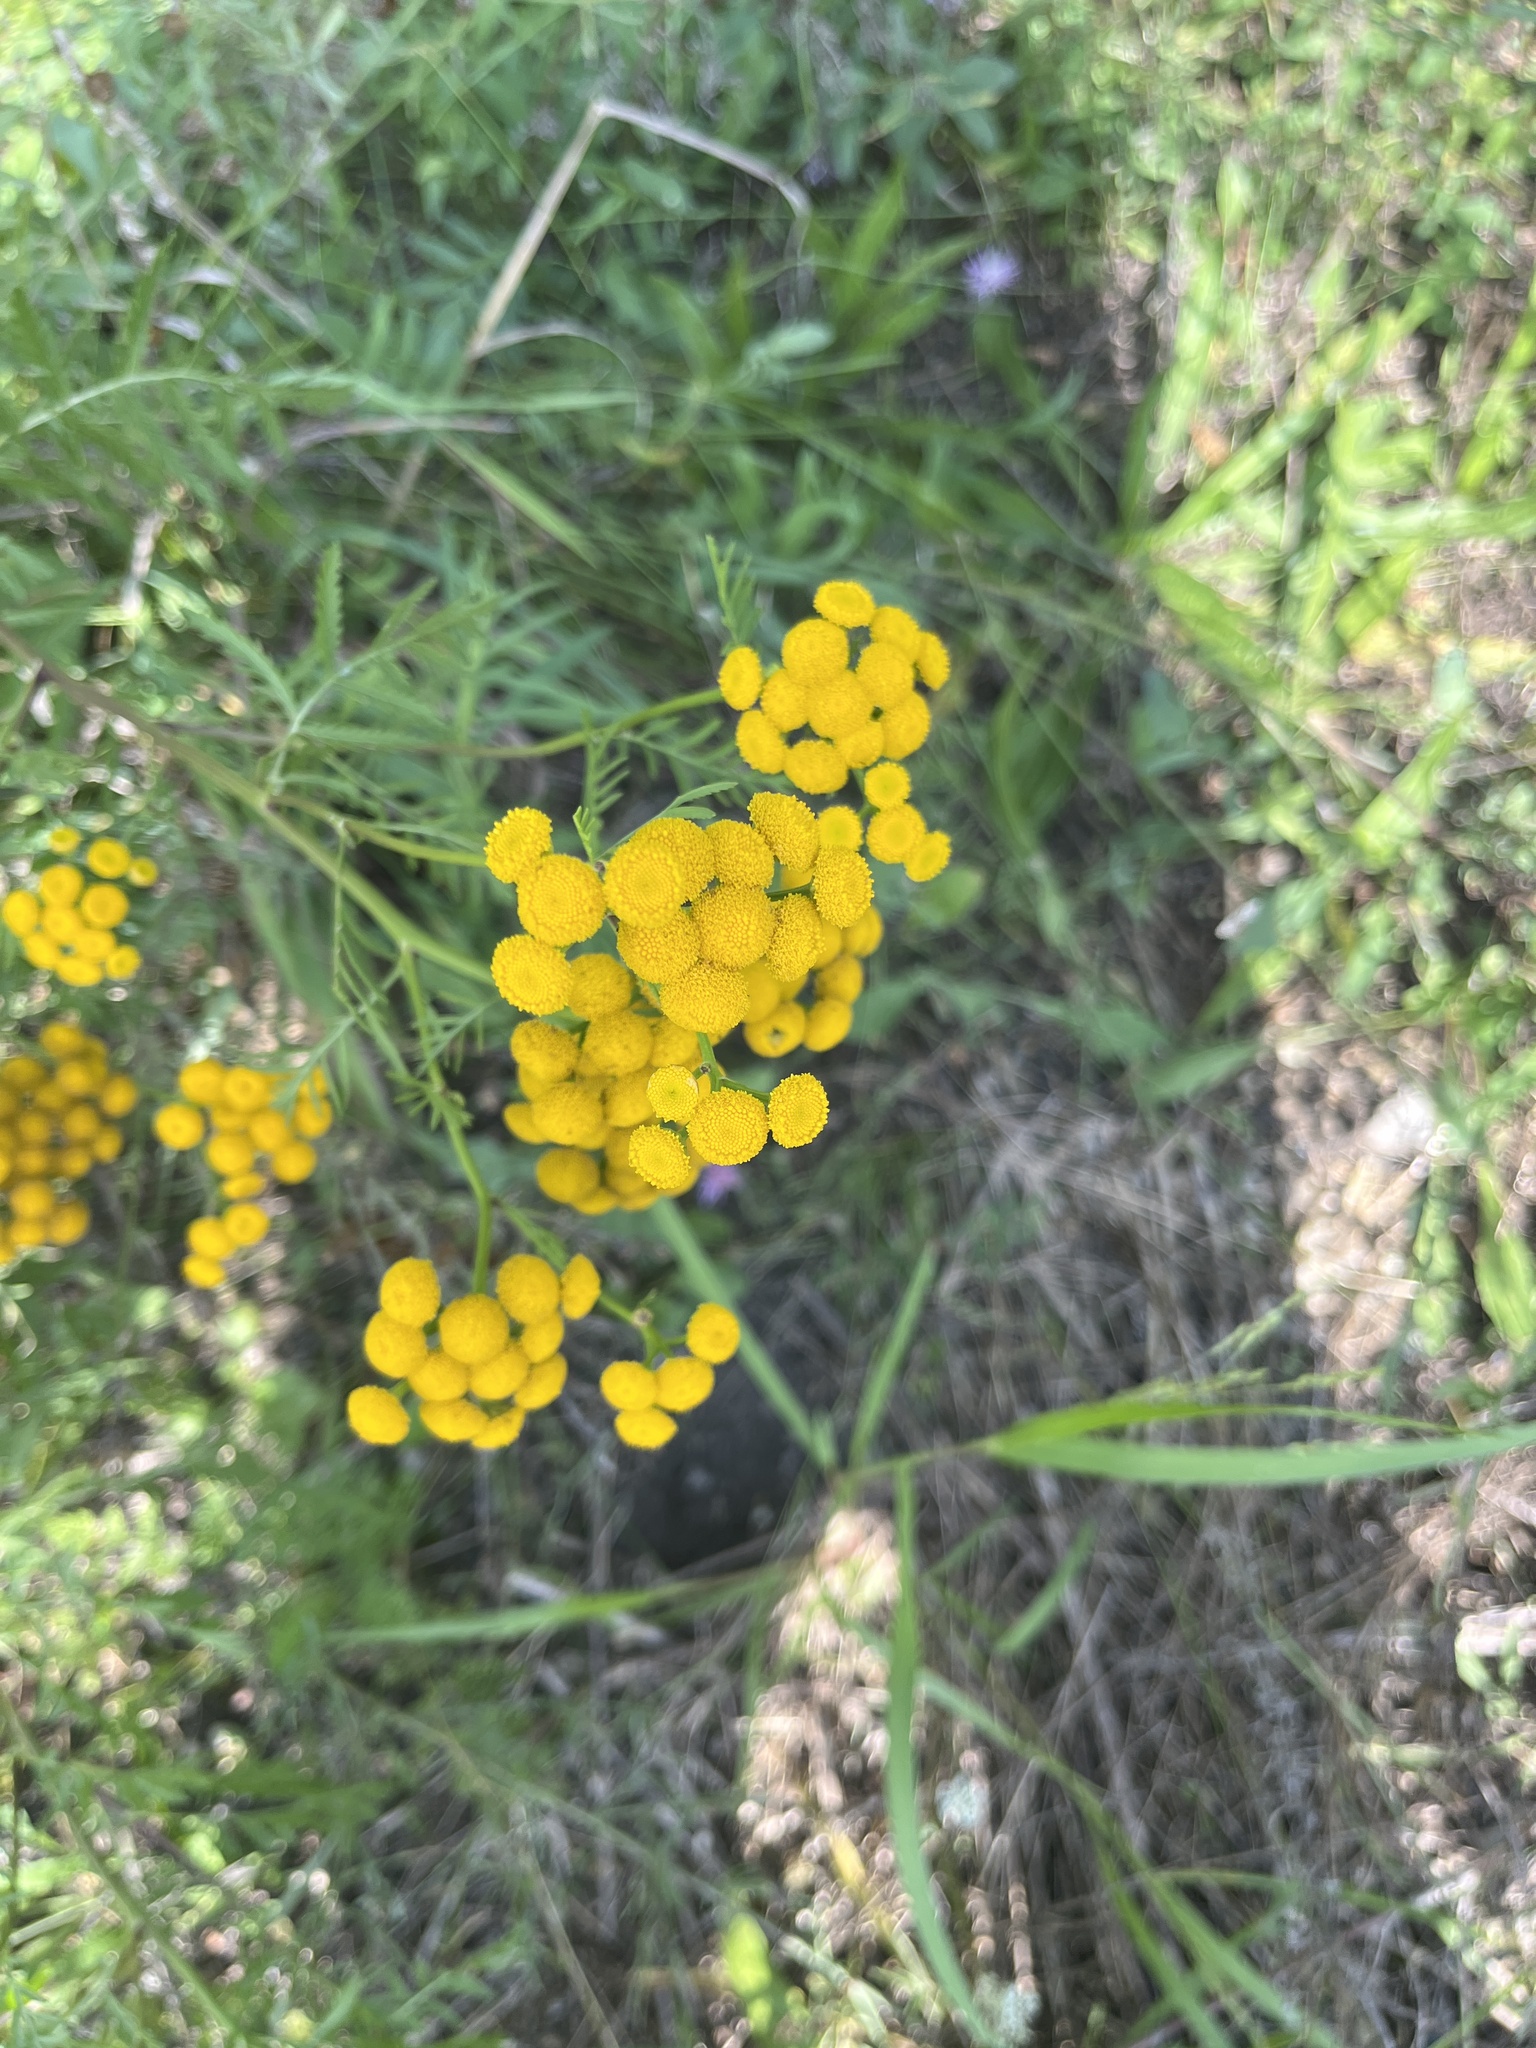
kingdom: Plantae
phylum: Tracheophyta
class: Magnoliopsida
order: Asterales
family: Asteraceae
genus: Tanacetum
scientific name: Tanacetum vulgare
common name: Common tansy
